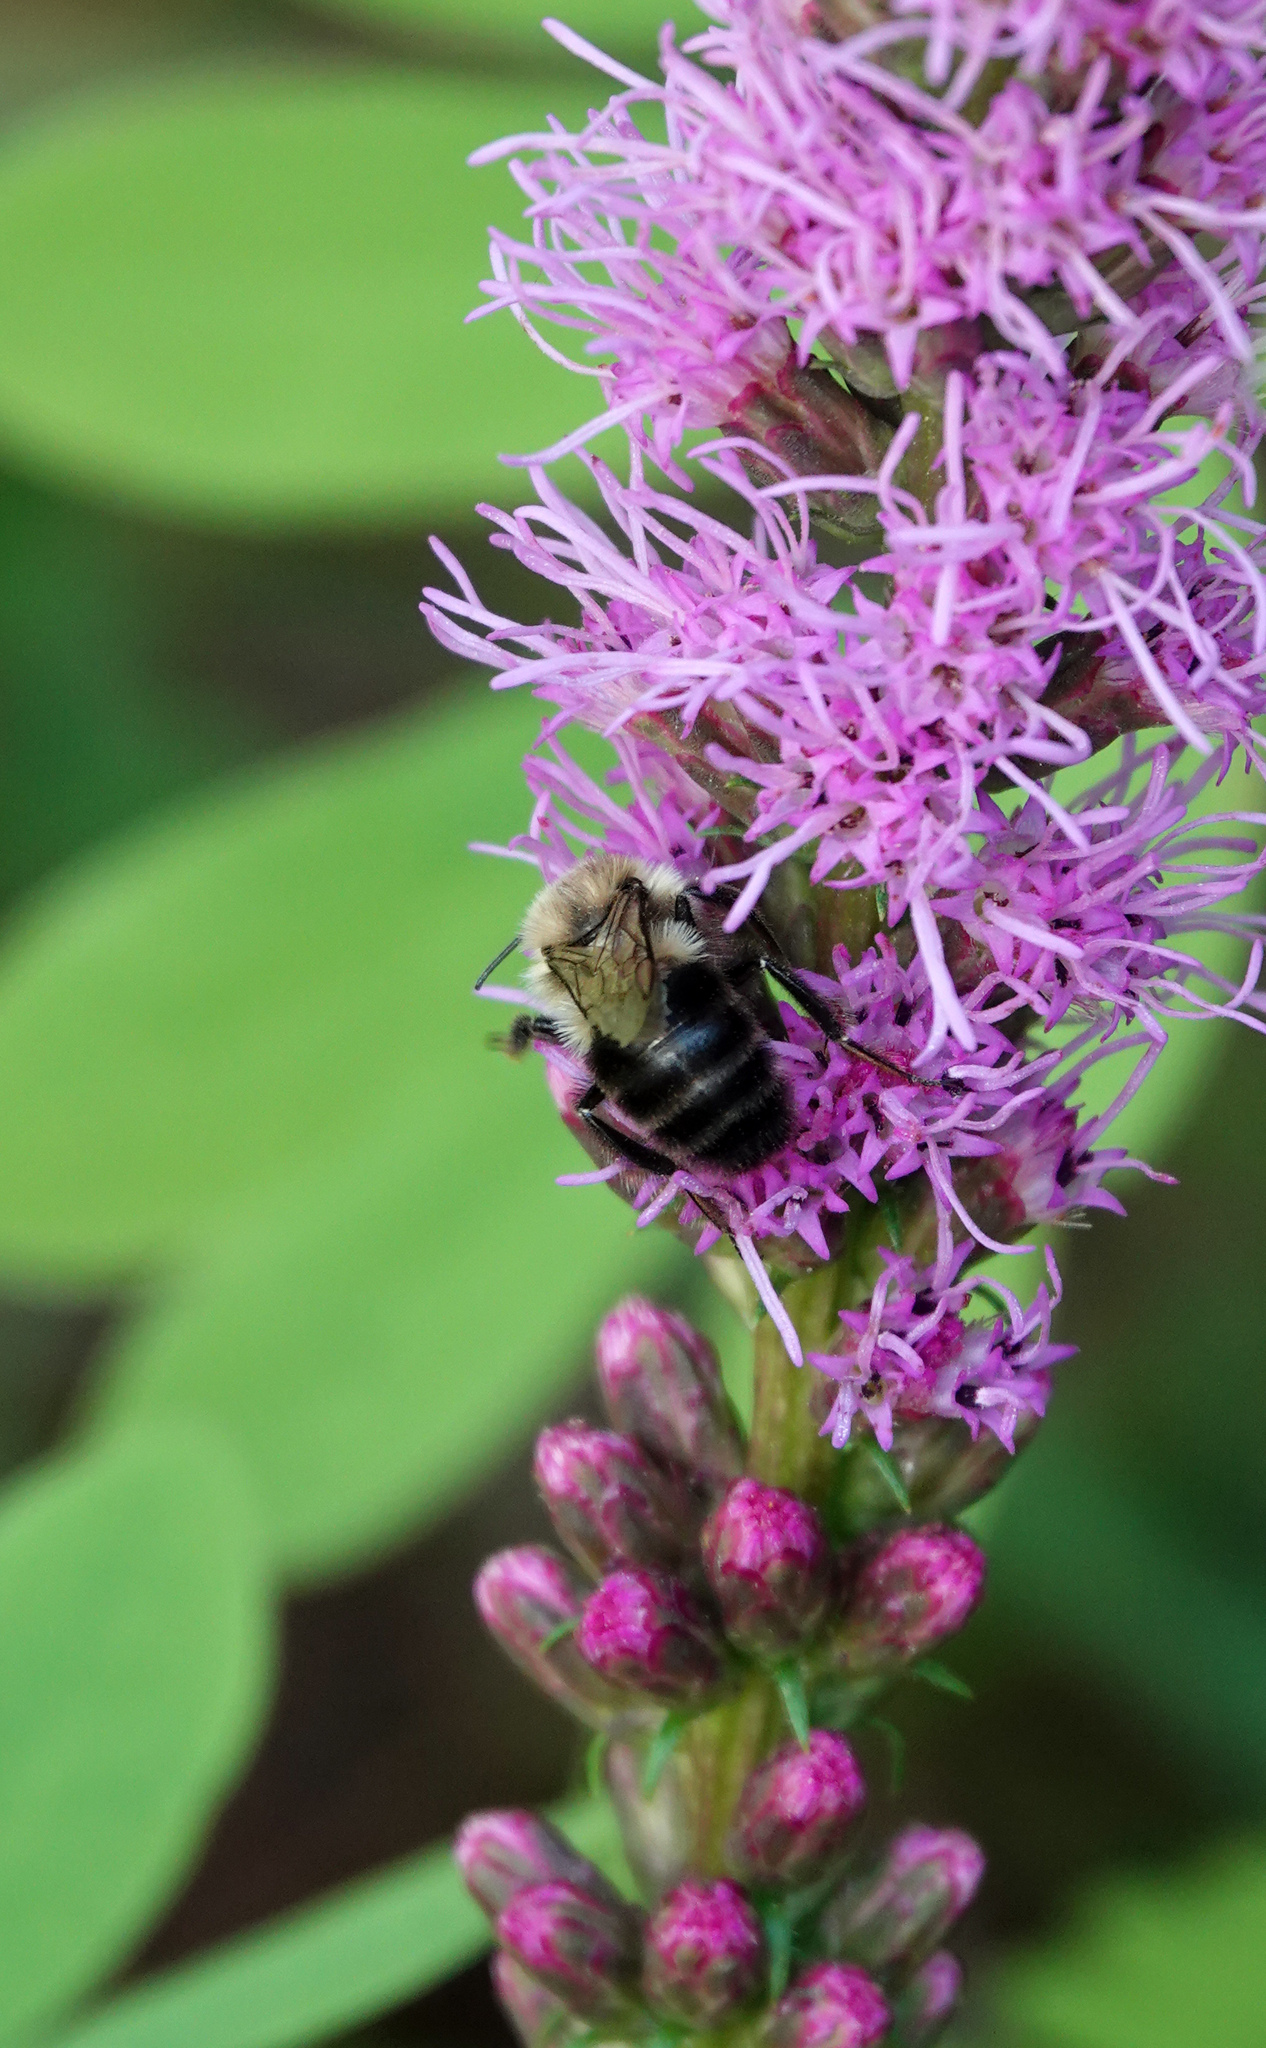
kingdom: Animalia
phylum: Arthropoda
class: Insecta
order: Hymenoptera
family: Apidae
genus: Bombus
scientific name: Bombus impatiens
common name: Common eastern bumble bee
